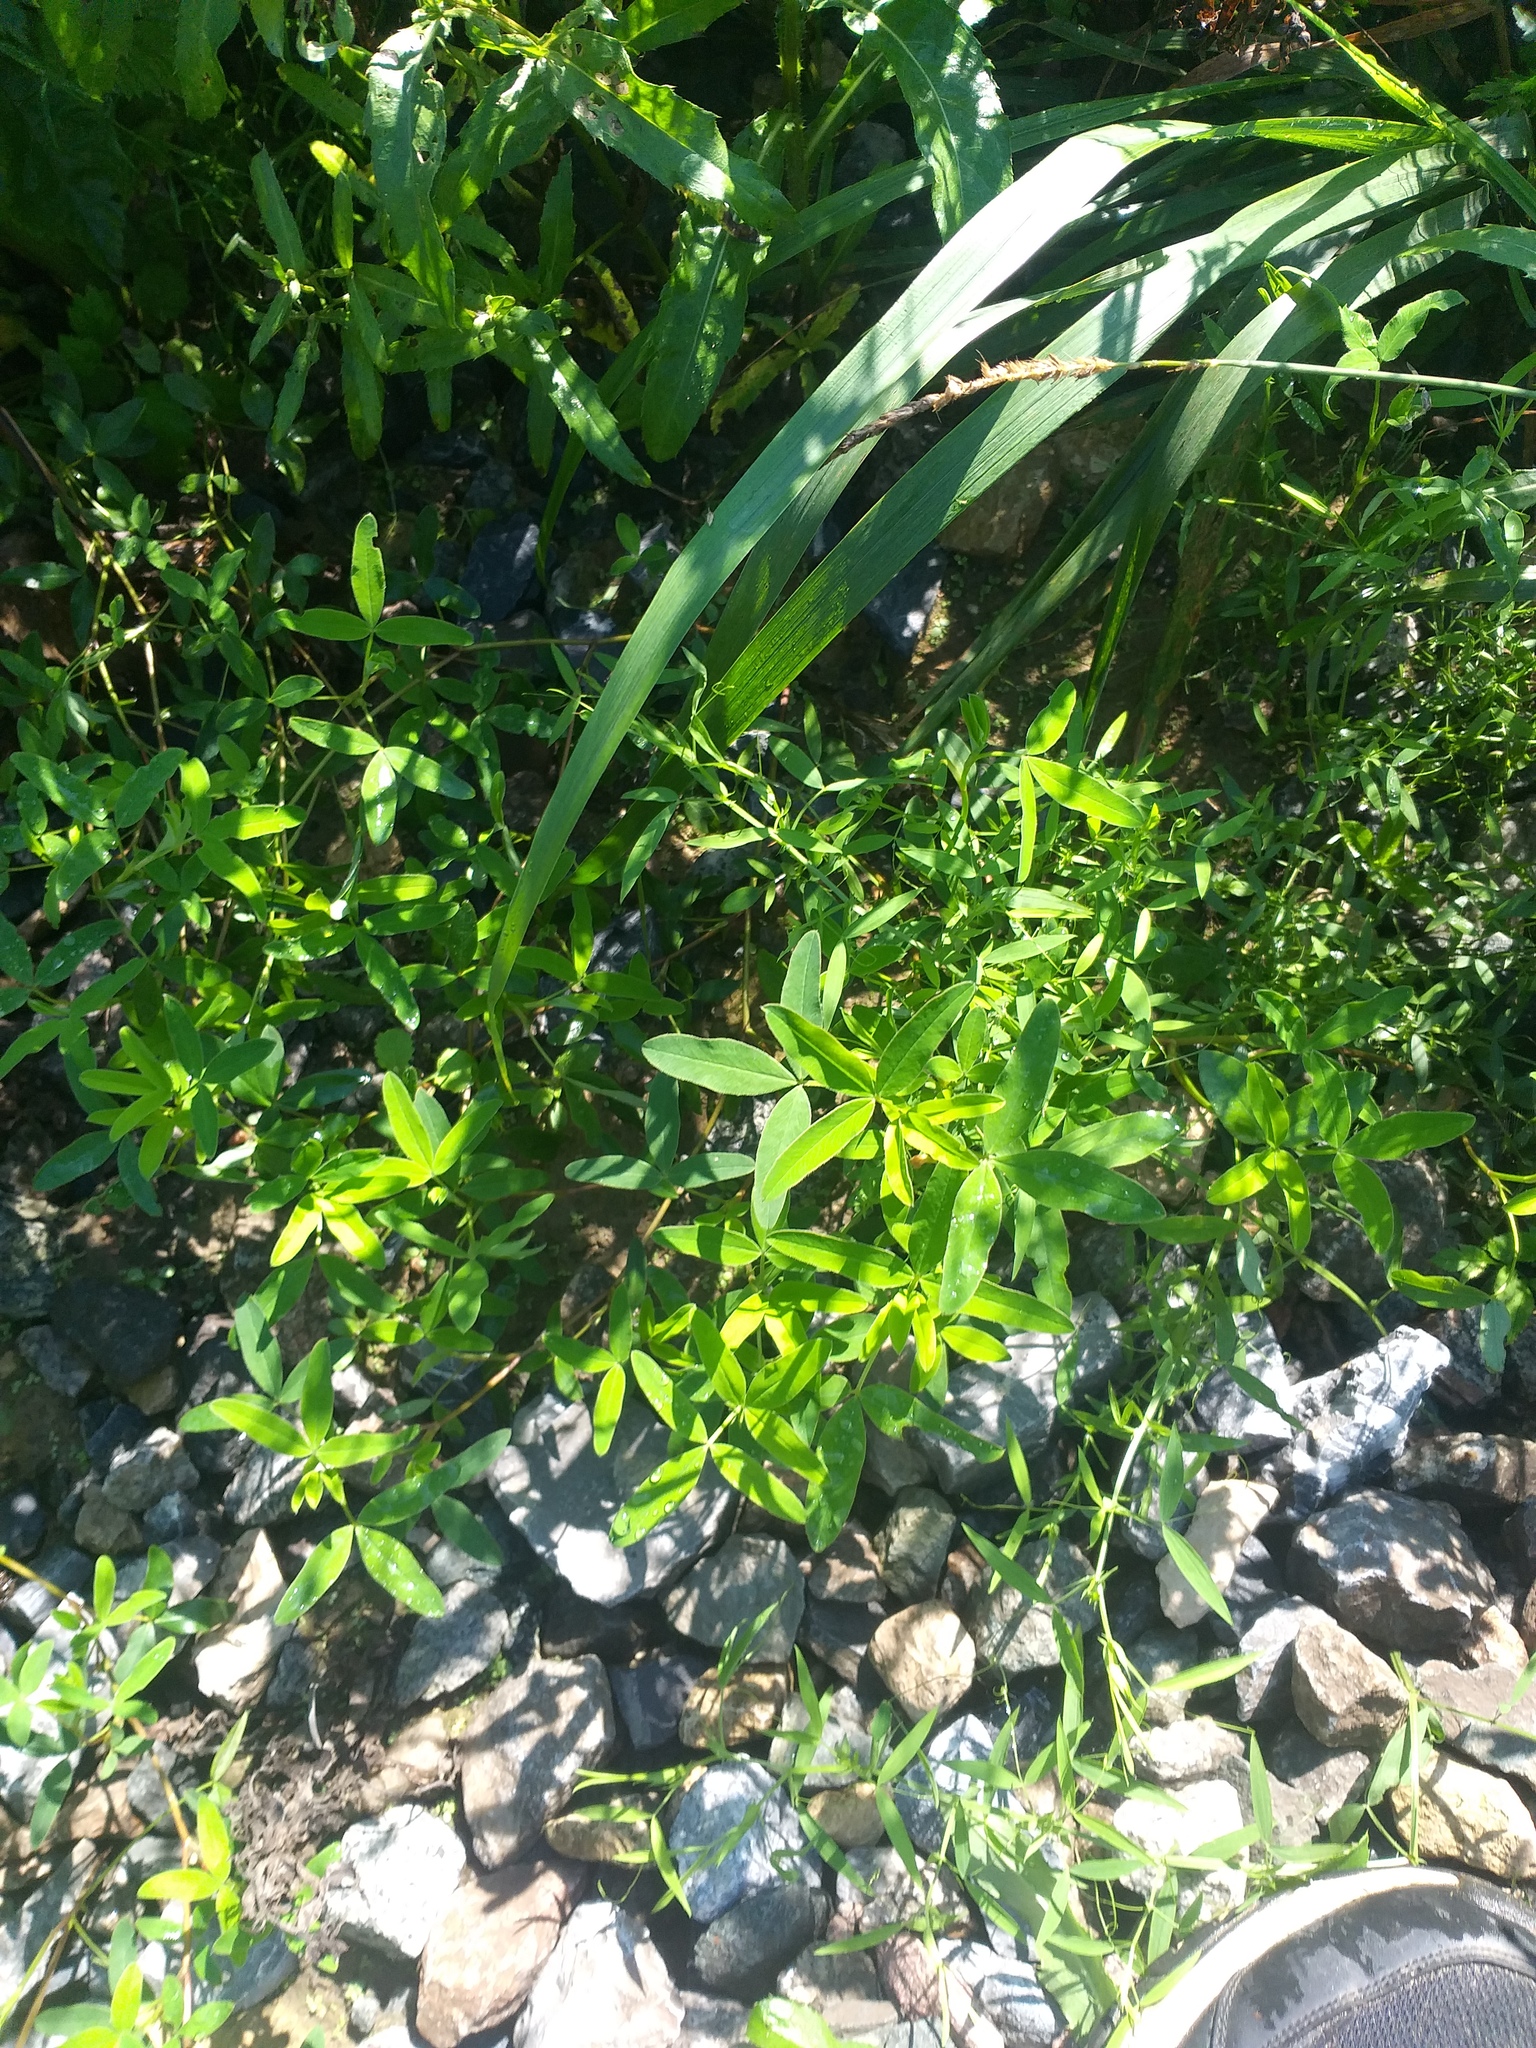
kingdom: Plantae
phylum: Tracheophyta
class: Magnoliopsida
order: Fabales
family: Fabaceae
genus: Trifolium
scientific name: Trifolium medium
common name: Zigzag clover
